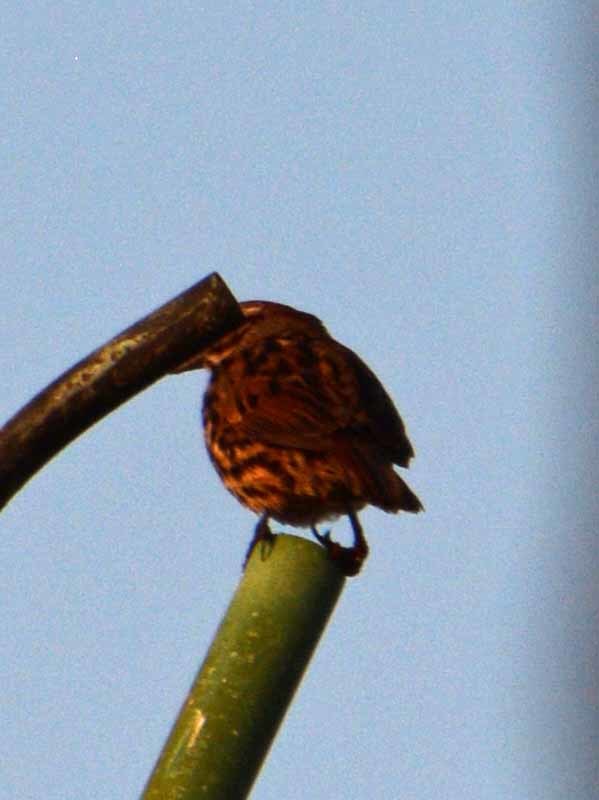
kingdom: Animalia
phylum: Chordata
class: Aves
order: Passeriformes
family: Passerellidae
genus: Melospiza
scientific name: Melospiza melodia
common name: Song sparrow
